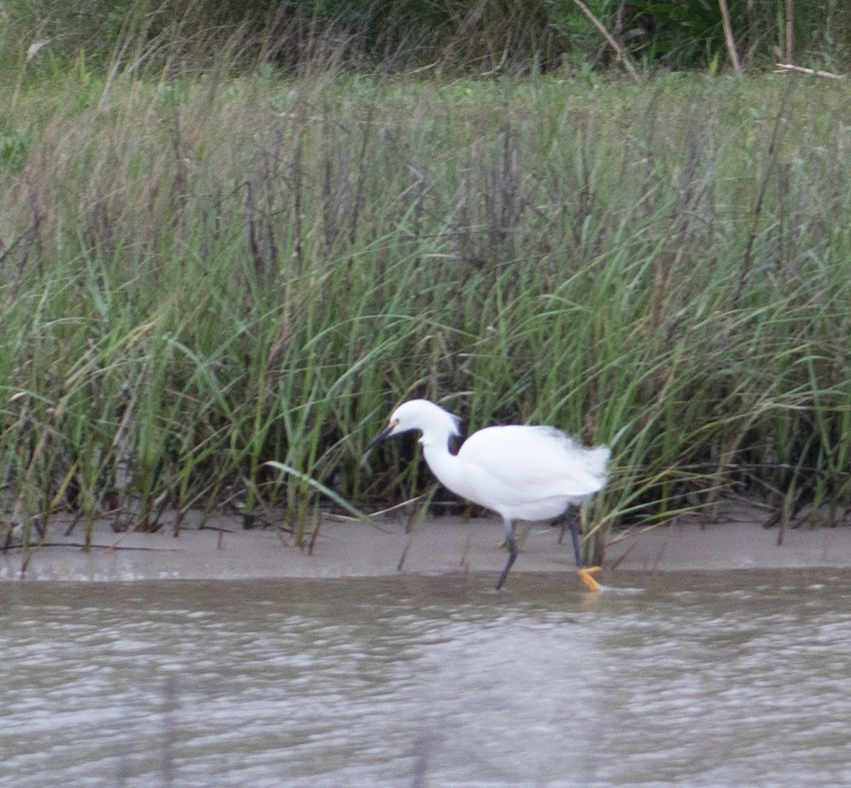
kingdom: Animalia
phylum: Chordata
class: Aves
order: Pelecaniformes
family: Ardeidae
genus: Egretta
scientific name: Egretta thula
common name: Snowy egret
